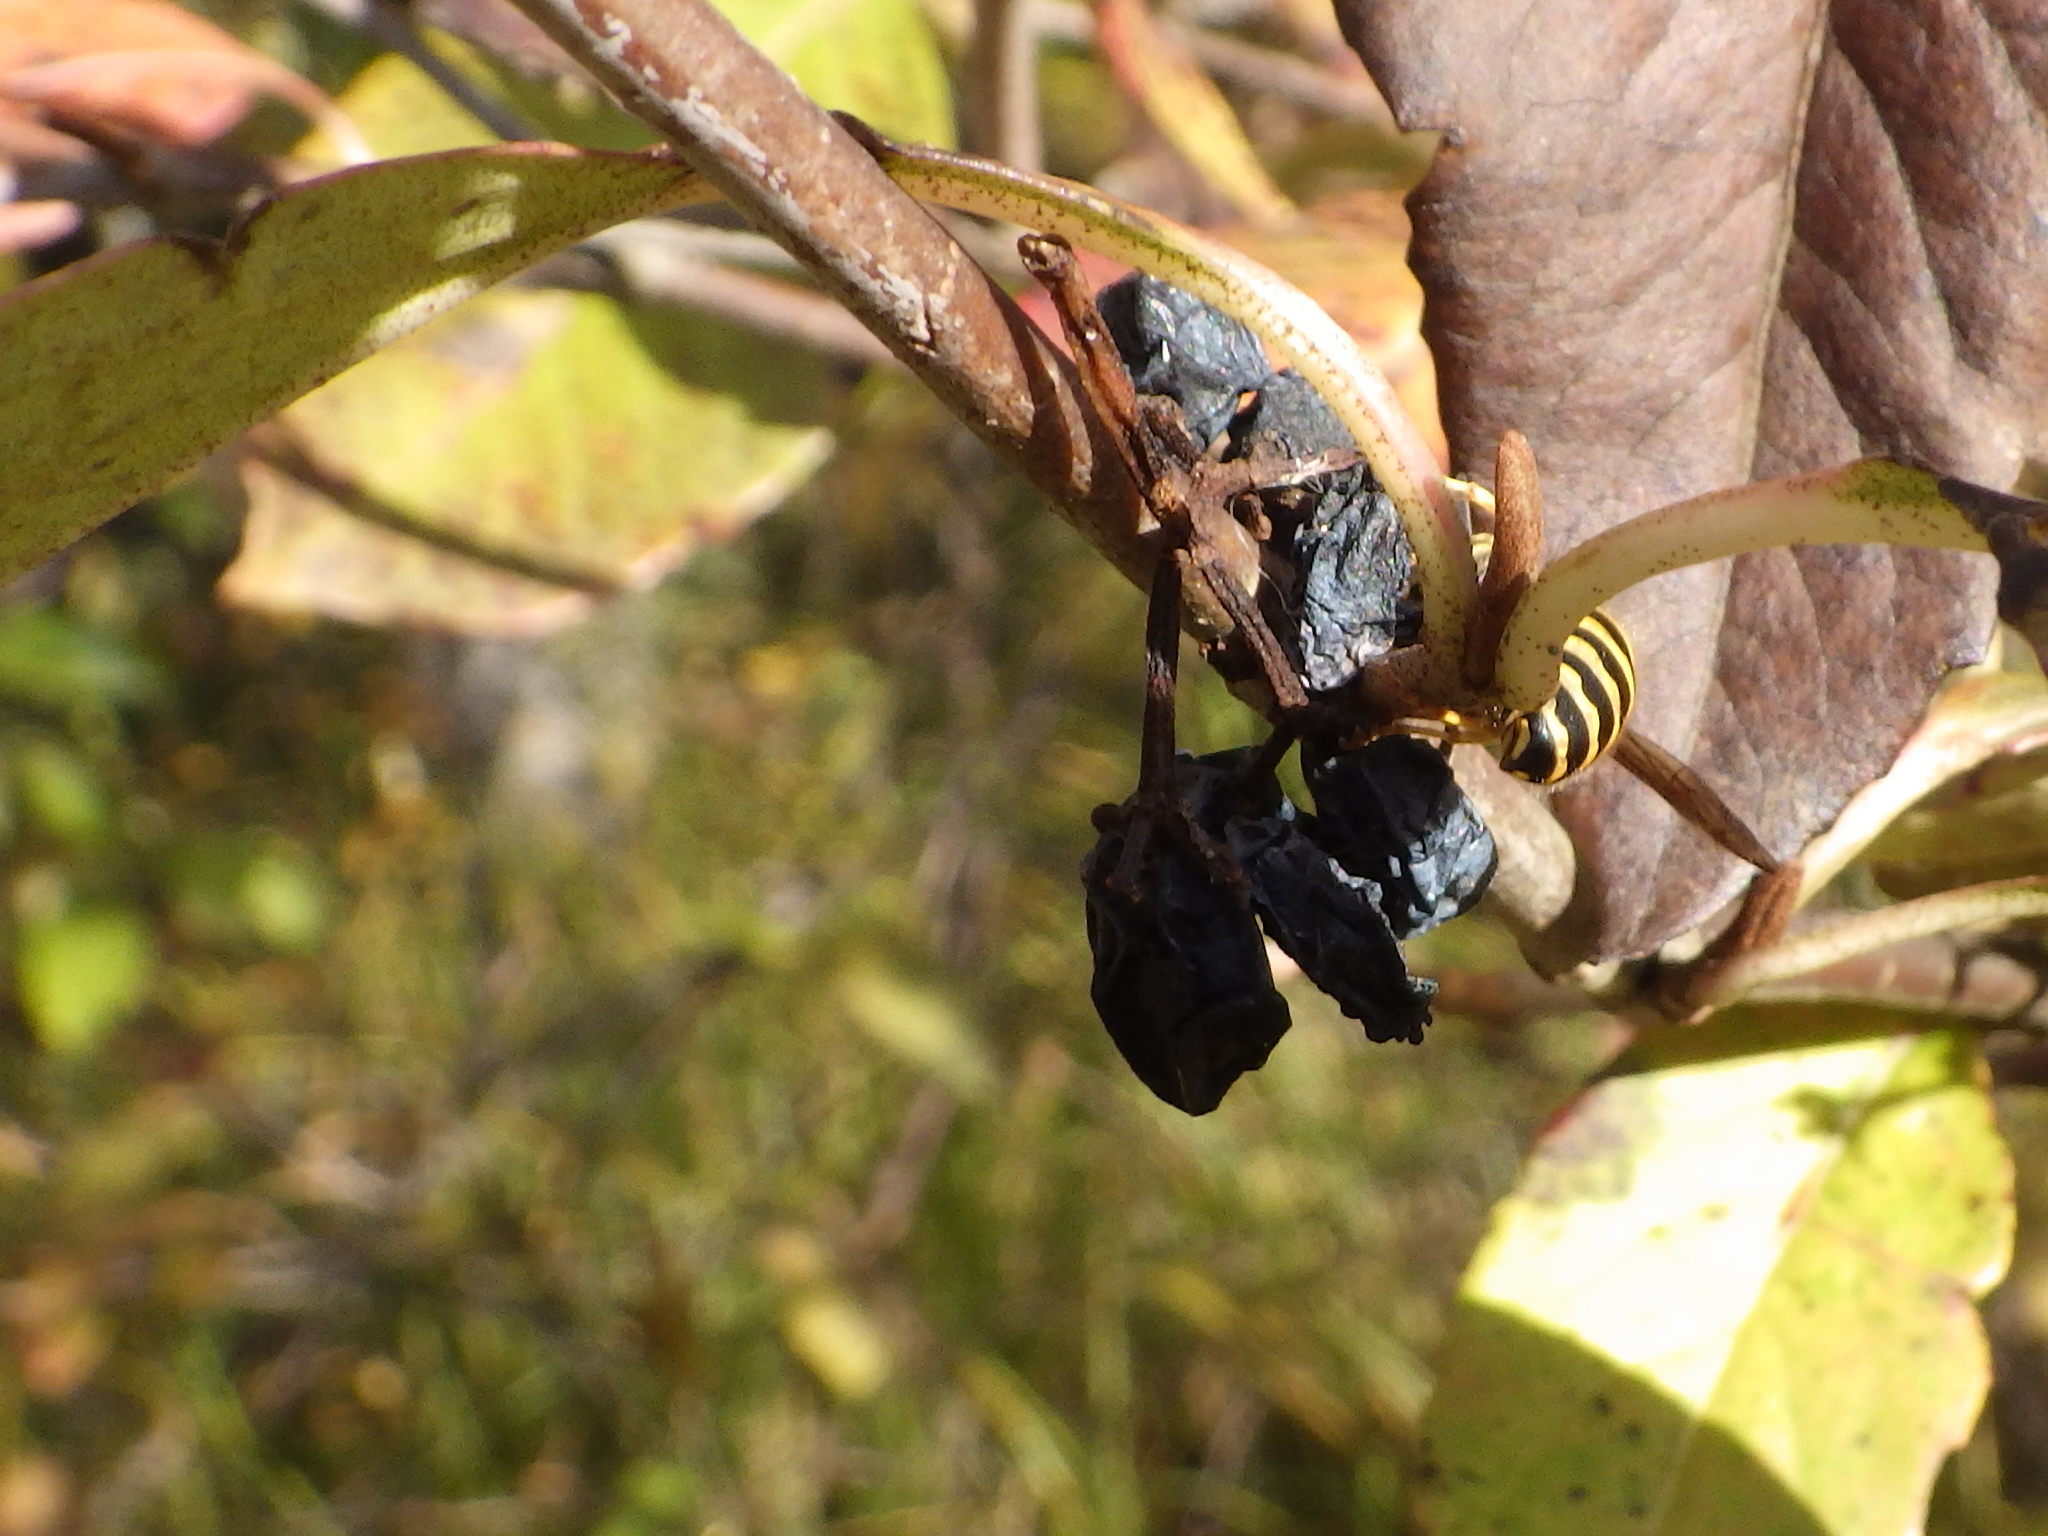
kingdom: Animalia
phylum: Arthropoda
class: Insecta
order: Hymenoptera
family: Vespidae
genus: Vespula
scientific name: Vespula alascensis
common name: Alaska yellowjacket
